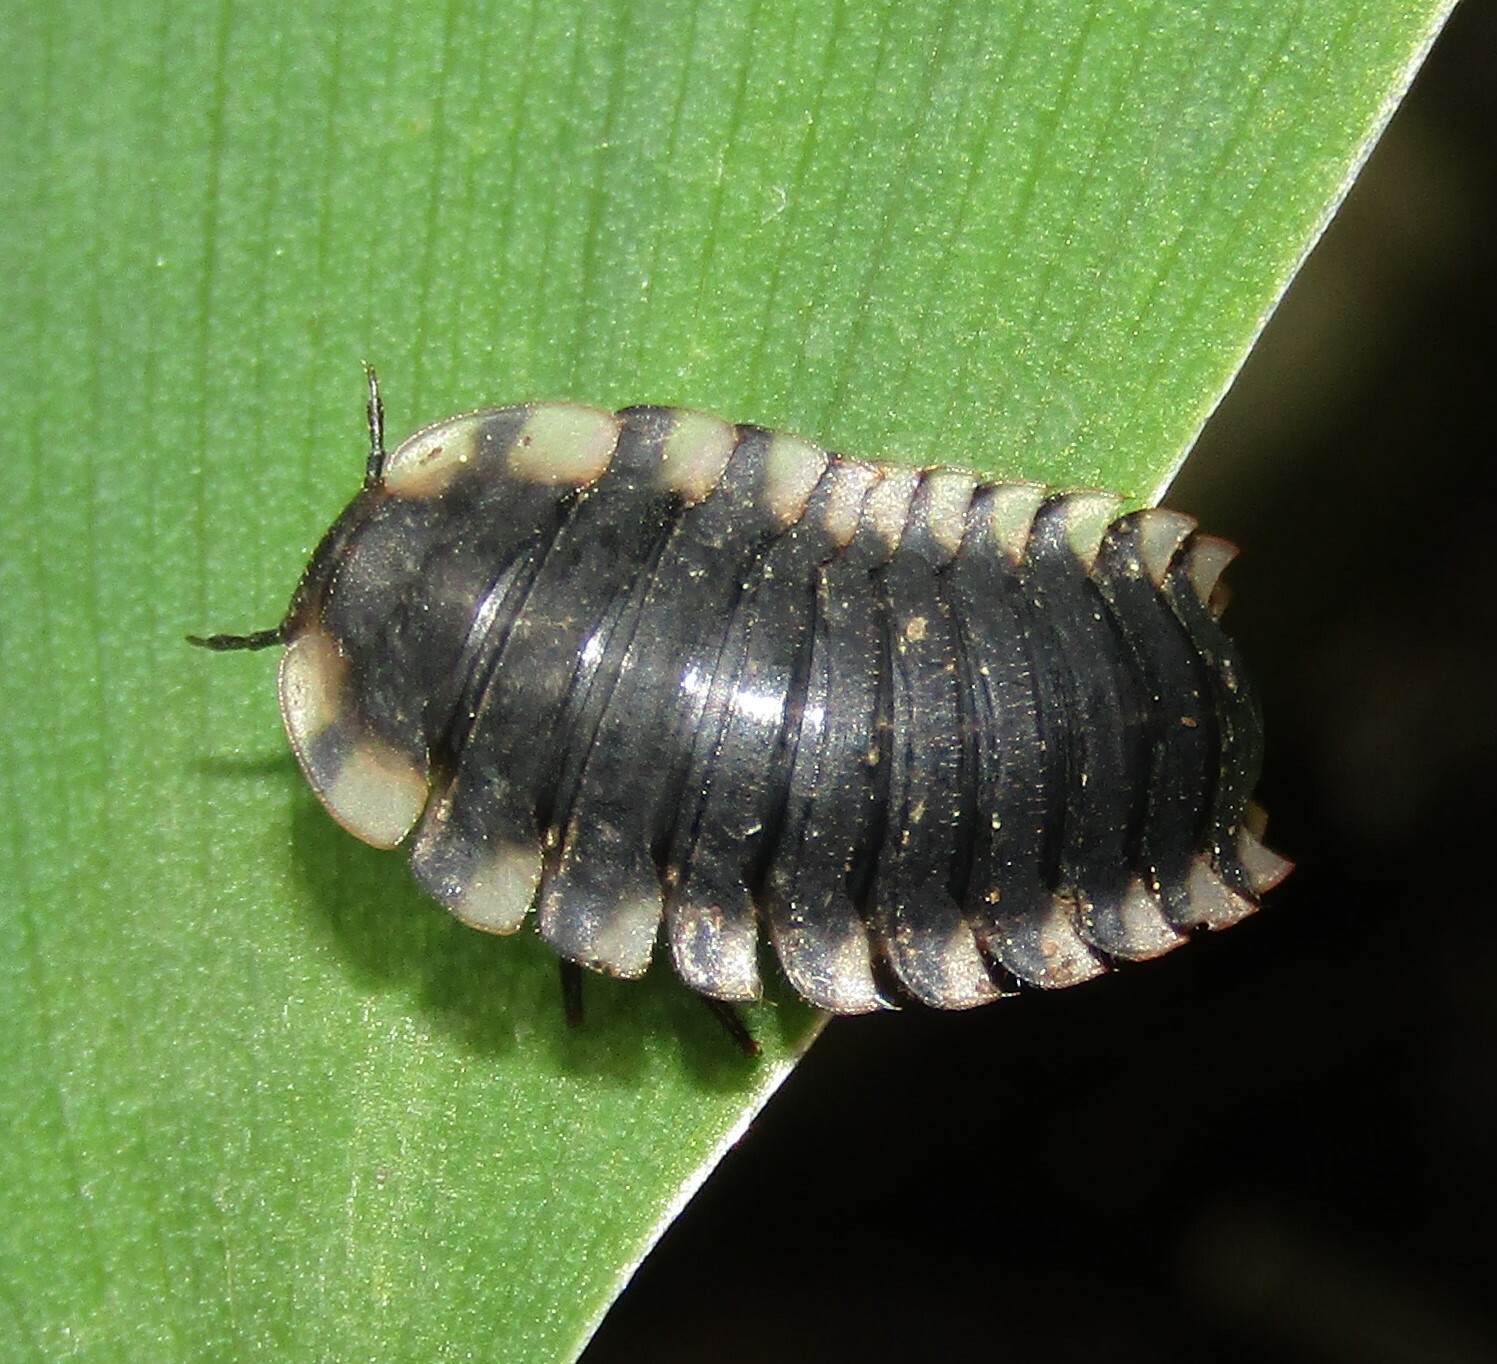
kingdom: Animalia
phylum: Arthropoda
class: Insecta
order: Coleoptera
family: Staphylinidae
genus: Oiceoptoma
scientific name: Oiceoptoma thoracicum
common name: Red-breasted carrion beetle
